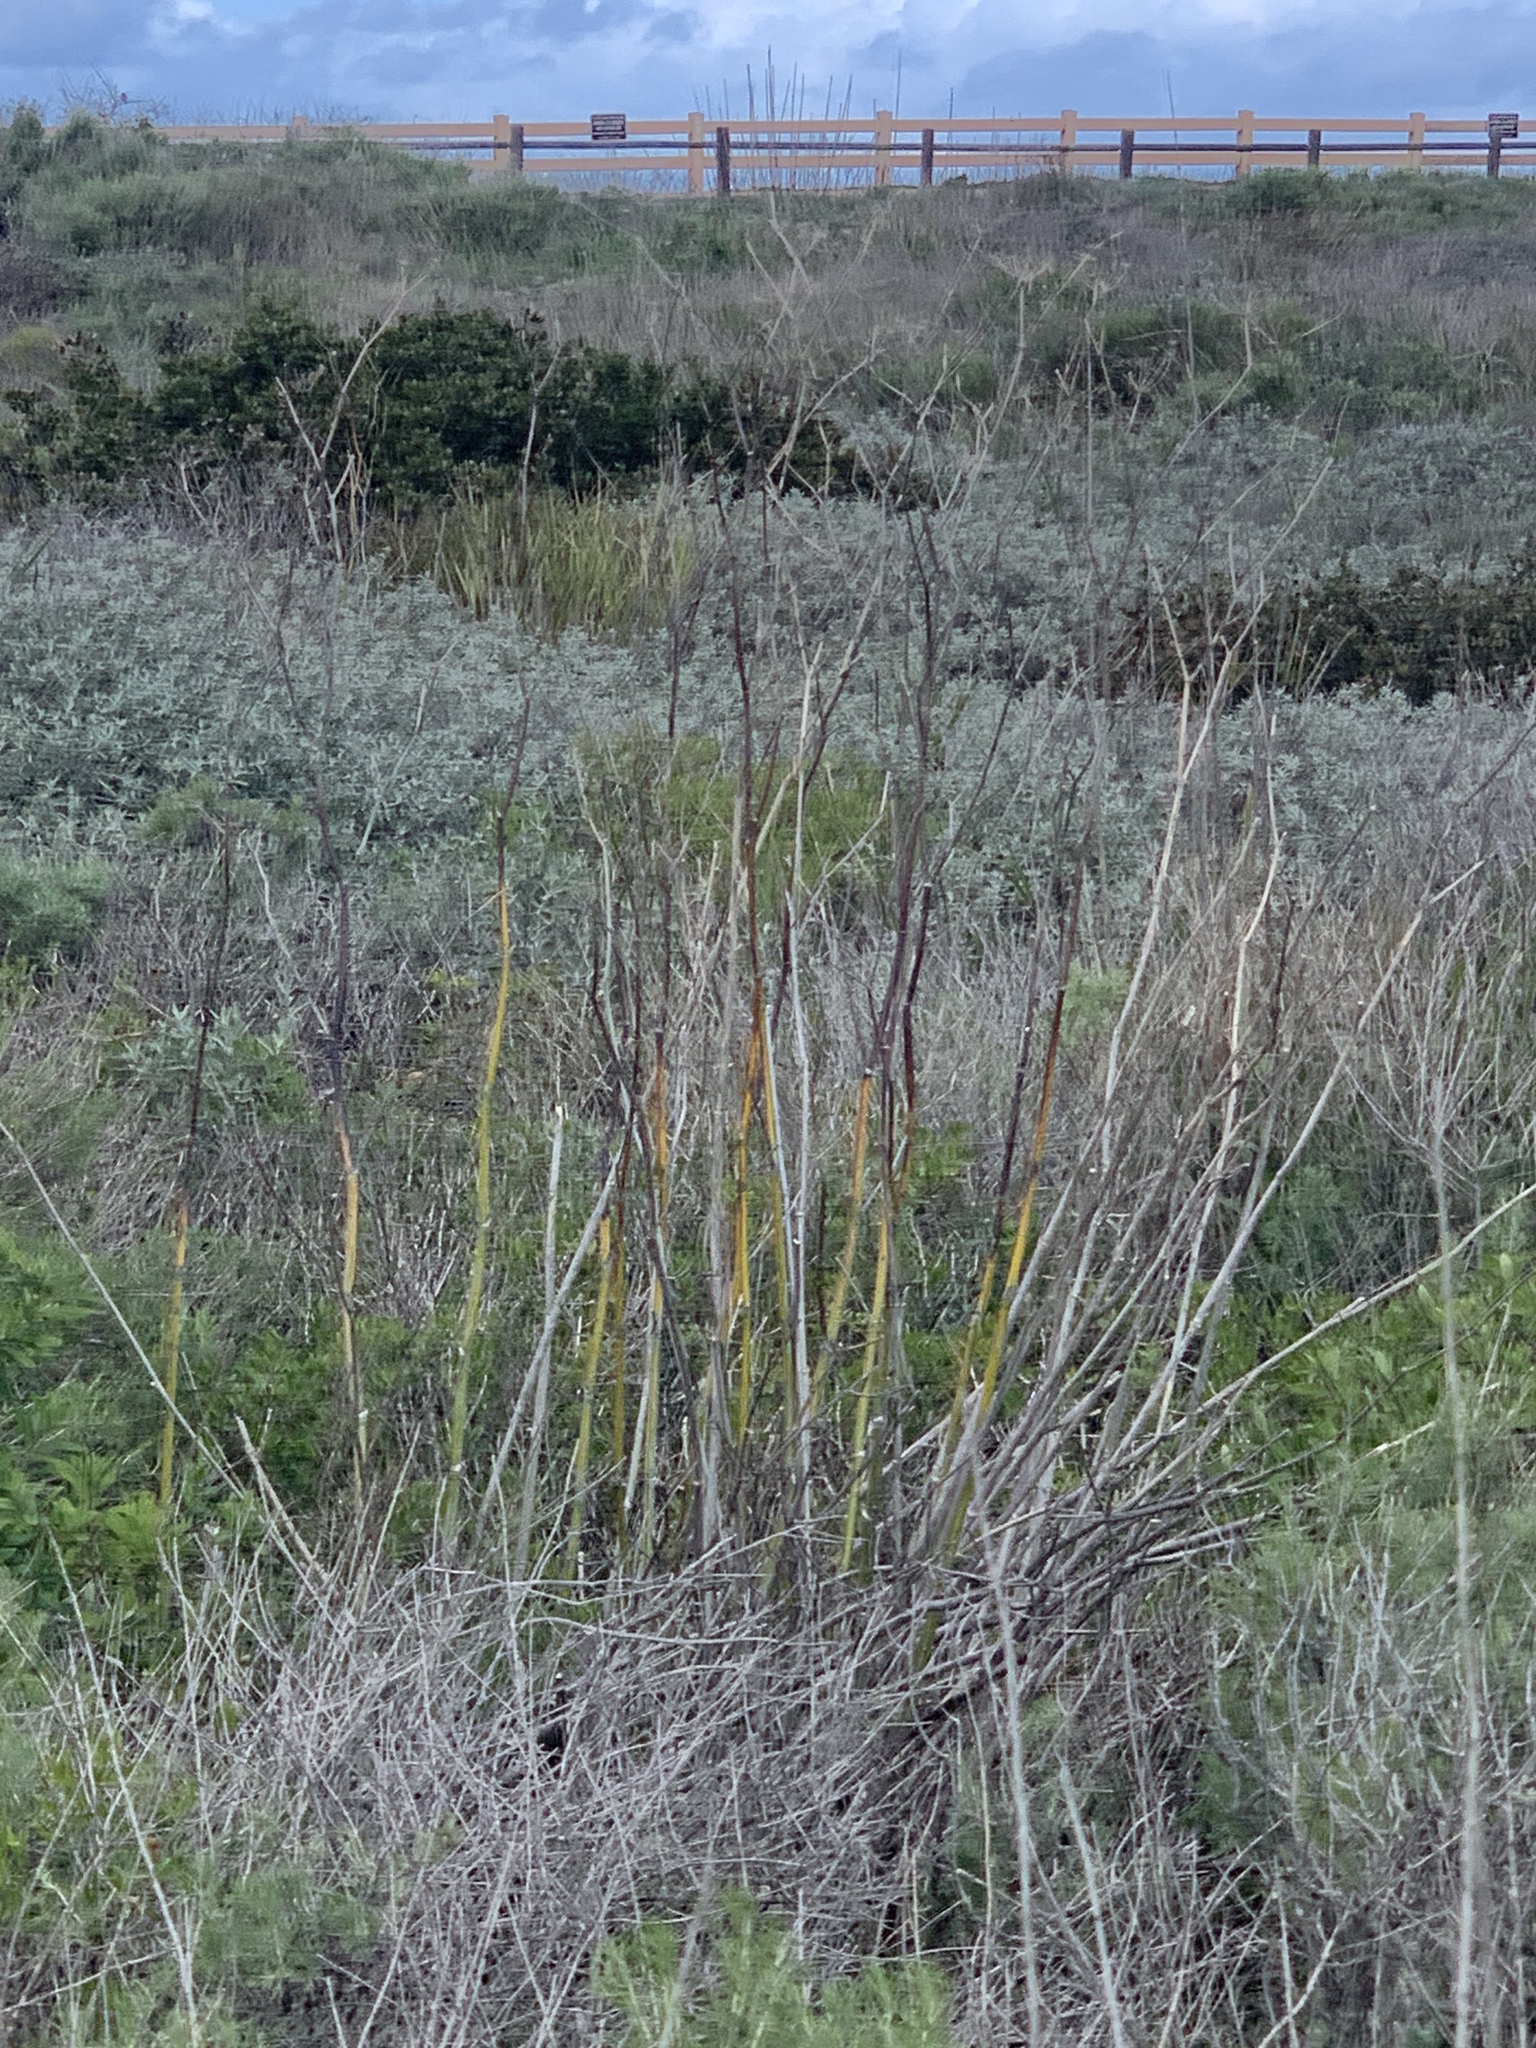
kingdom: Plantae
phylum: Tracheophyta
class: Magnoliopsida
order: Apiales
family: Apiaceae
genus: Foeniculum
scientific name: Foeniculum vulgare
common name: Fennel
